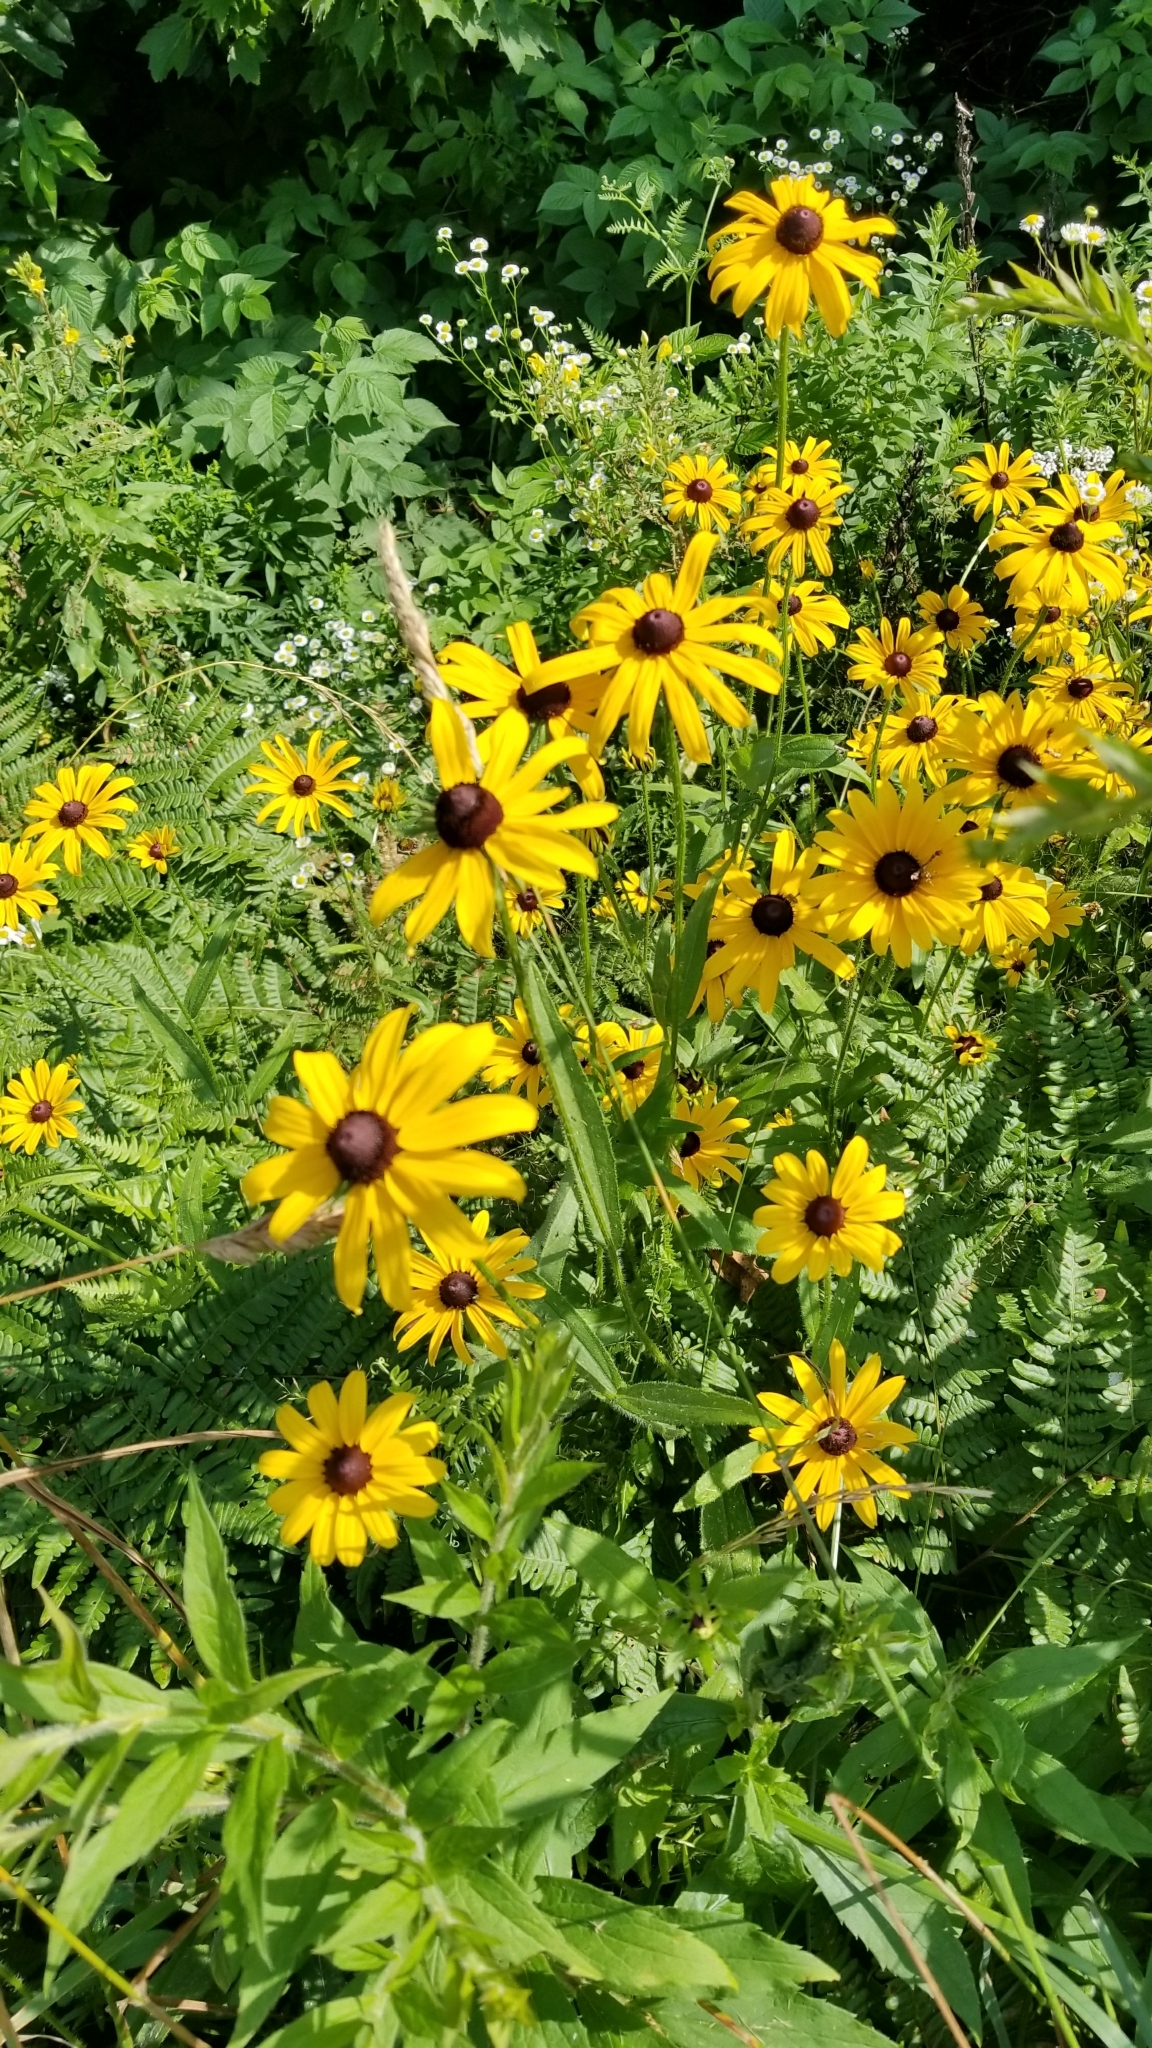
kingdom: Plantae
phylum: Tracheophyta
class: Magnoliopsida
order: Asterales
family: Asteraceae
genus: Rudbeckia
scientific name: Rudbeckia hirta
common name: Black-eyed-susan
